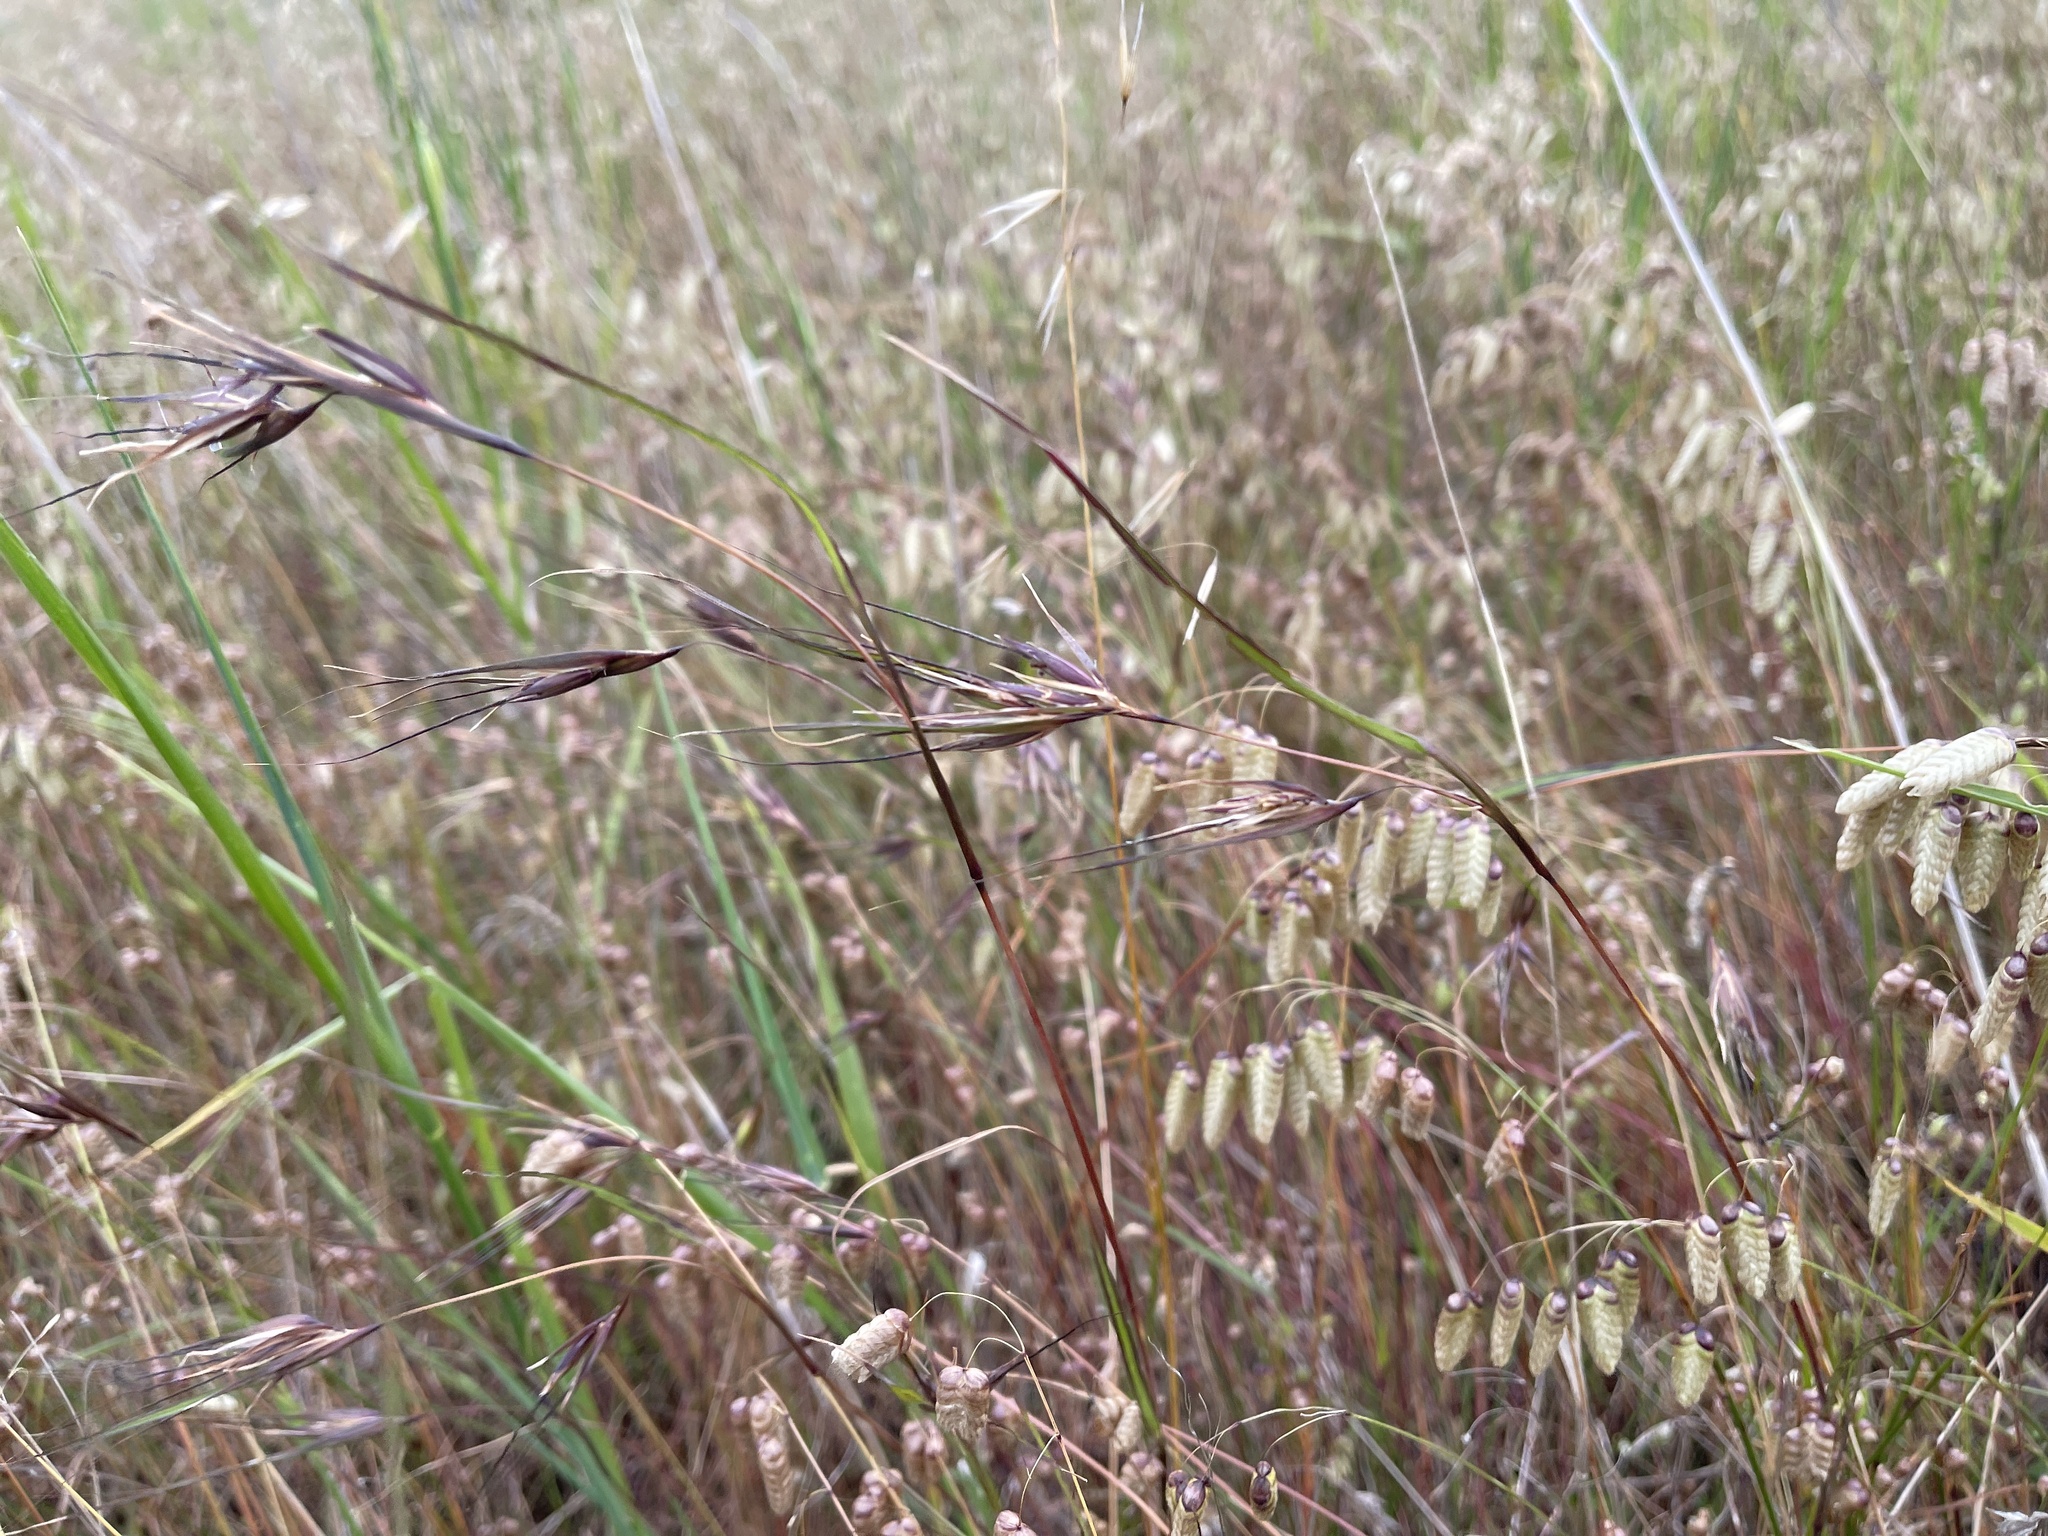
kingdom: Plantae
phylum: Tracheophyta
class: Liliopsida
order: Poales
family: Poaceae
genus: Themeda
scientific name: Themeda triandra
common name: Kangaroo grass
